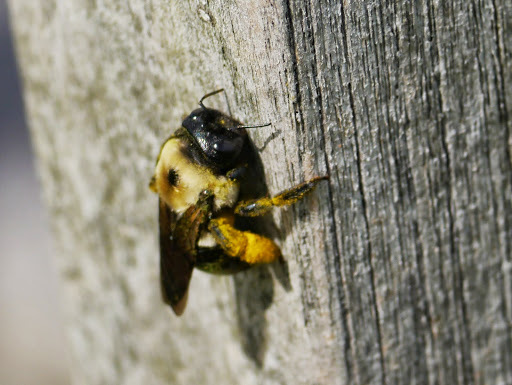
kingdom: Animalia
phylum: Arthropoda
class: Insecta
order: Hymenoptera
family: Apidae
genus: Xylocopa
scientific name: Xylocopa virginica
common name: Carpenter bee
